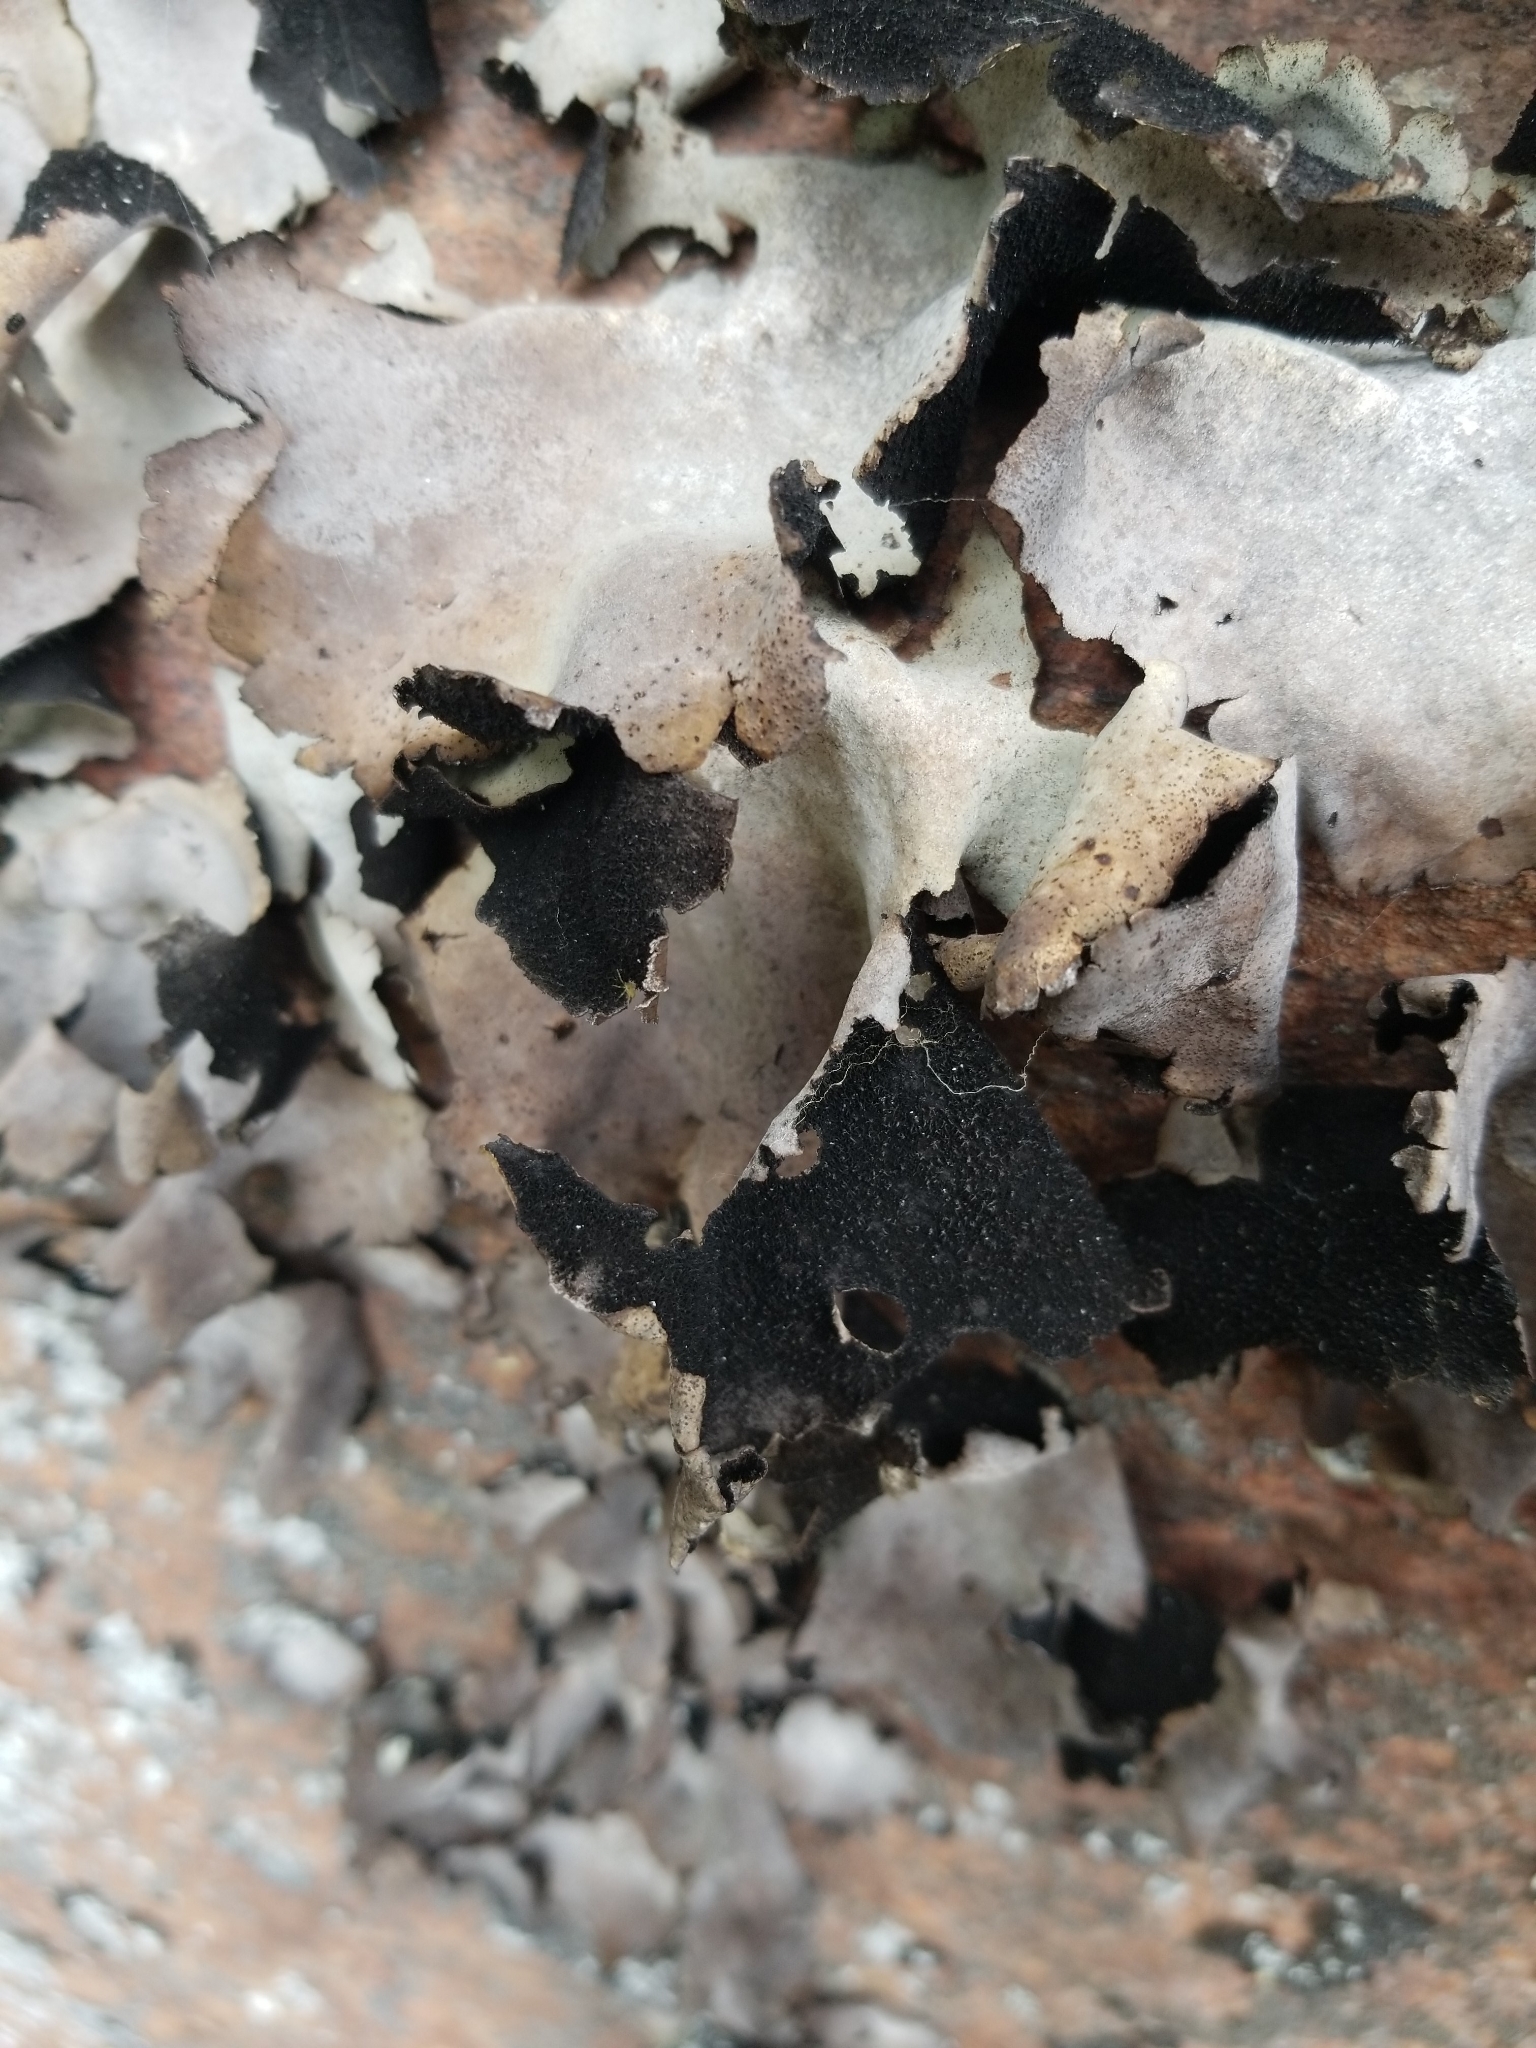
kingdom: Fungi
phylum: Ascomycota
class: Lecanoromycetes
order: Umbilicariales
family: Umbilicariaceae
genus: Umbilicaria
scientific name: Umbilicaria mammulata
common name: Smooth rock tripe
